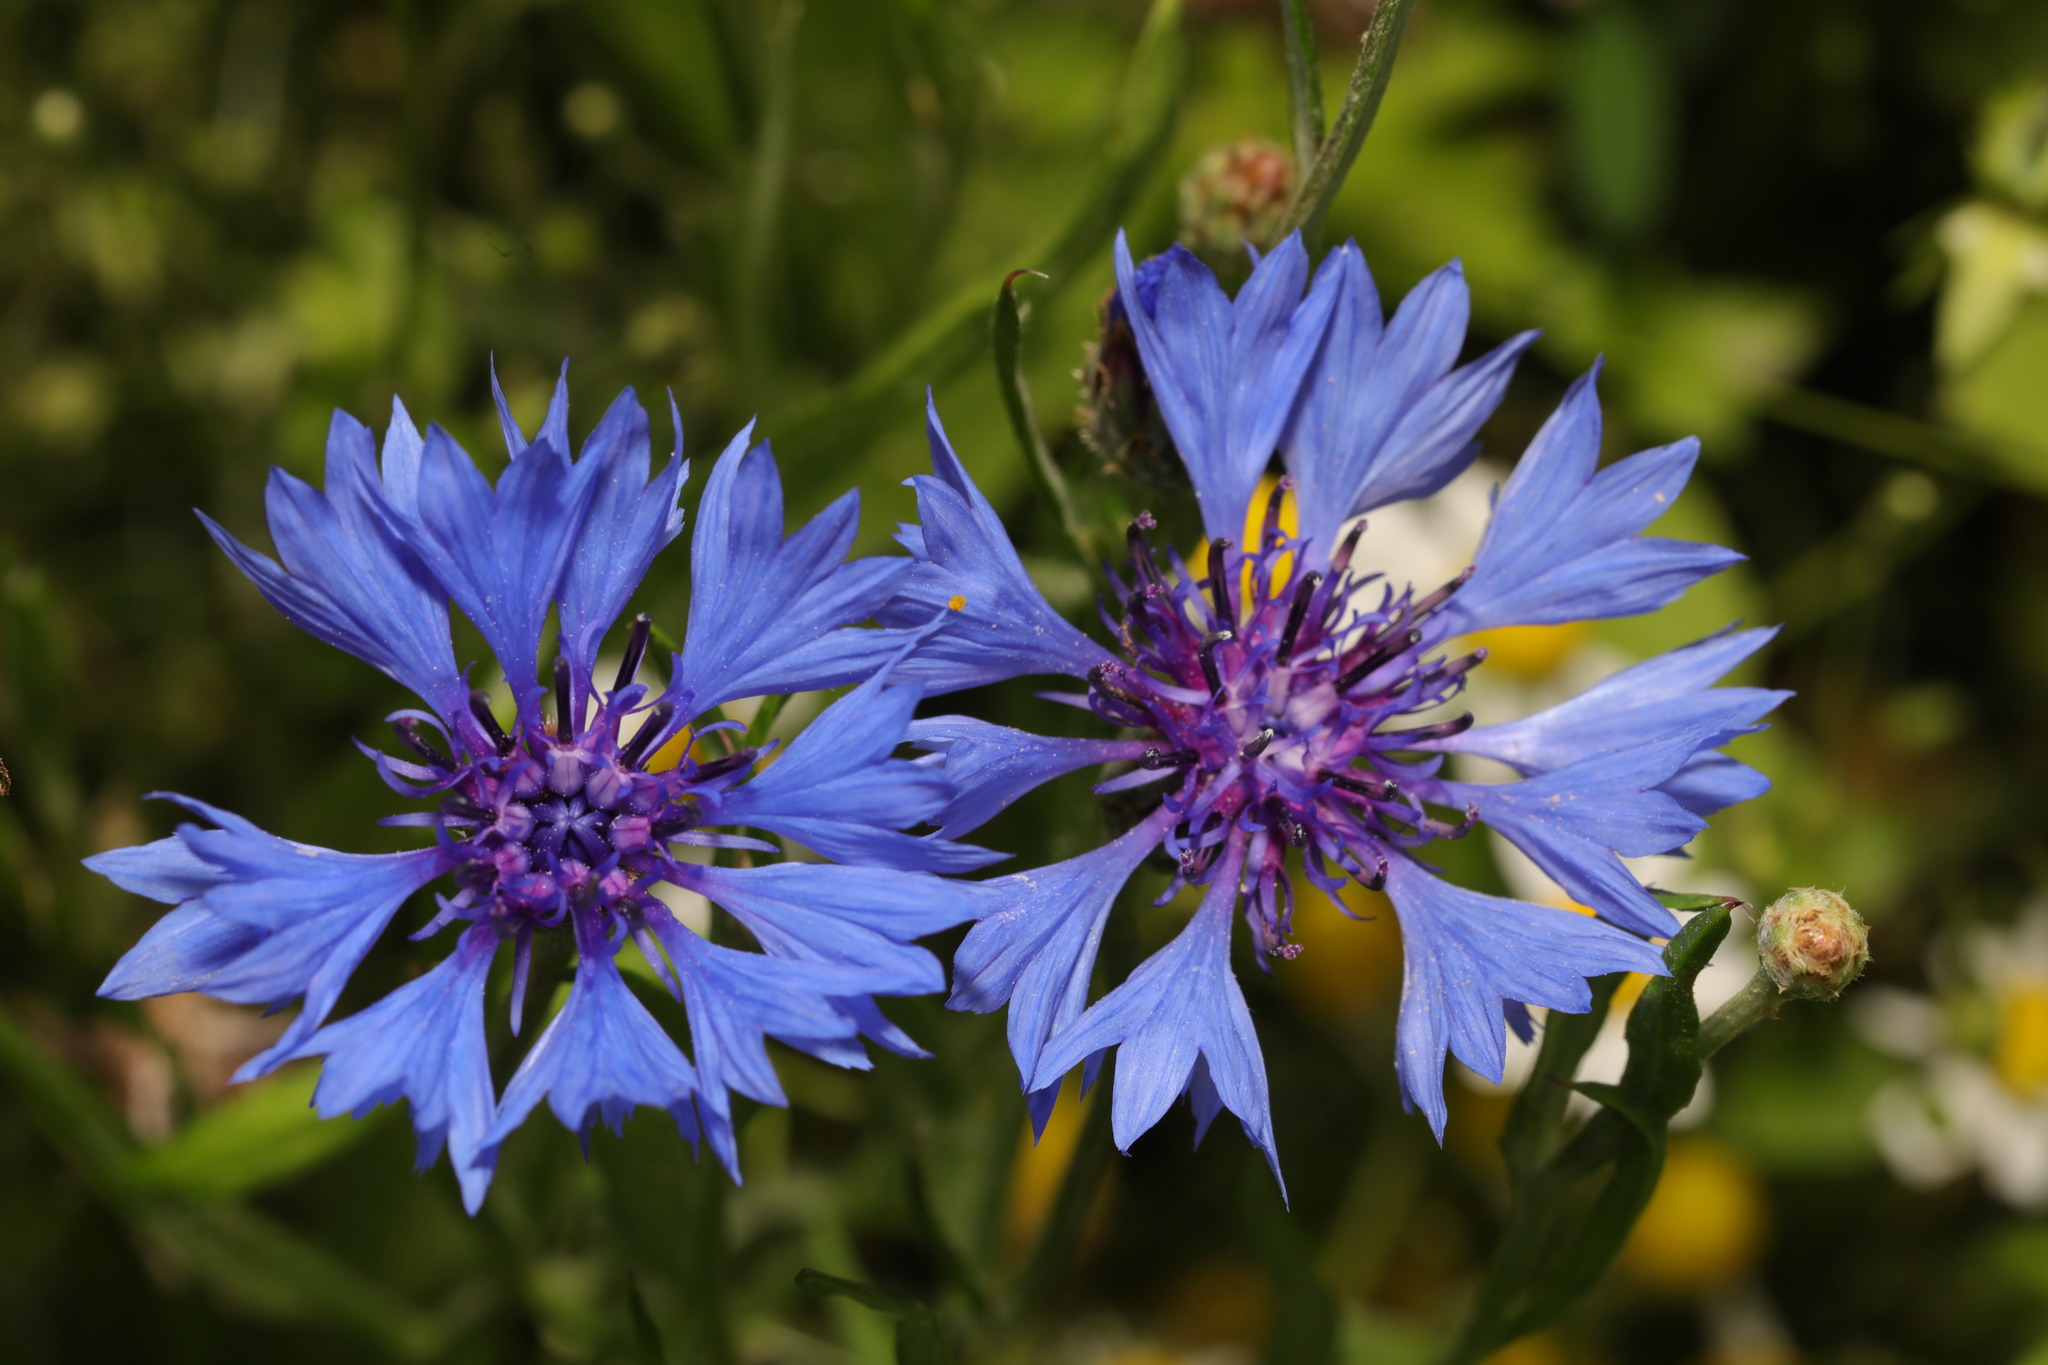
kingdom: Plantae
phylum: Tracheophyta
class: Magnoliopsida
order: Asterales
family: Asteraceae
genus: Centaurea
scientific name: Centaurea cyanus
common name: Cornflower
